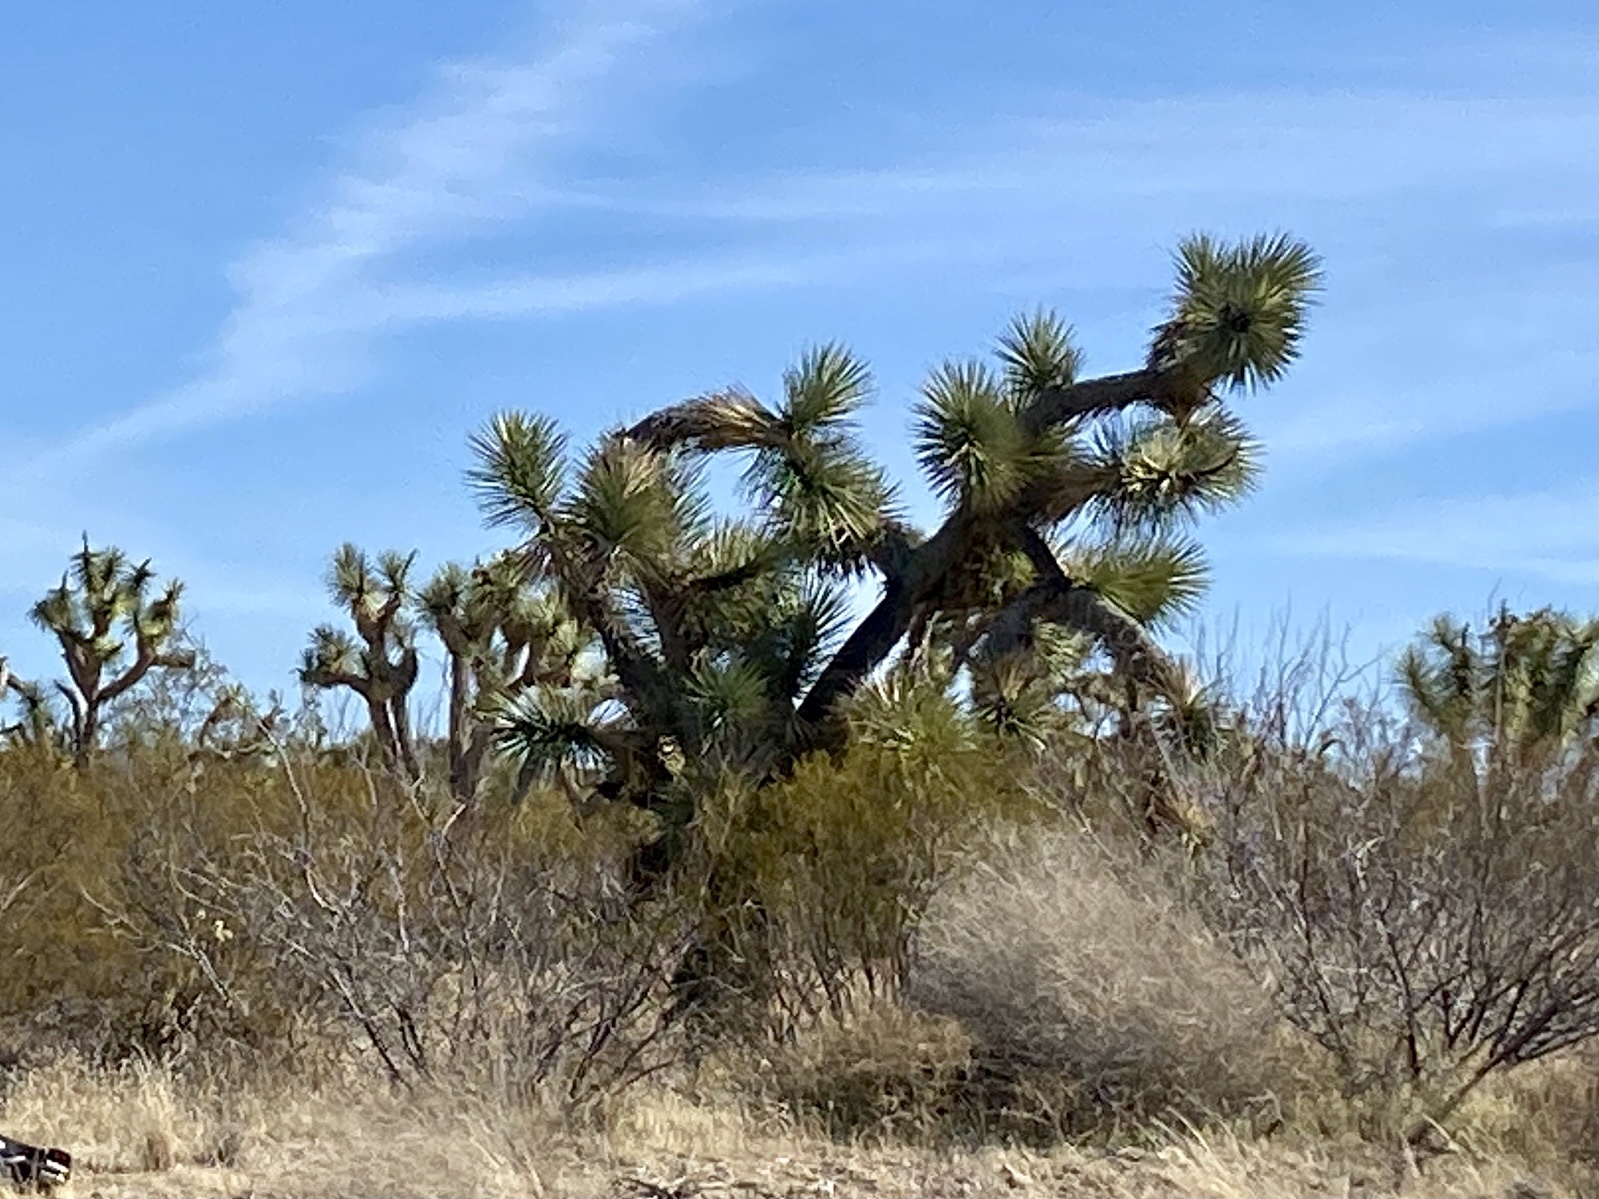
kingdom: Plantae
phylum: Tracheophyta
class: Liliopsida
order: Asparagales
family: Asparagaceae
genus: Yucca
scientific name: Yucca brevifolia
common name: Joshua tree
